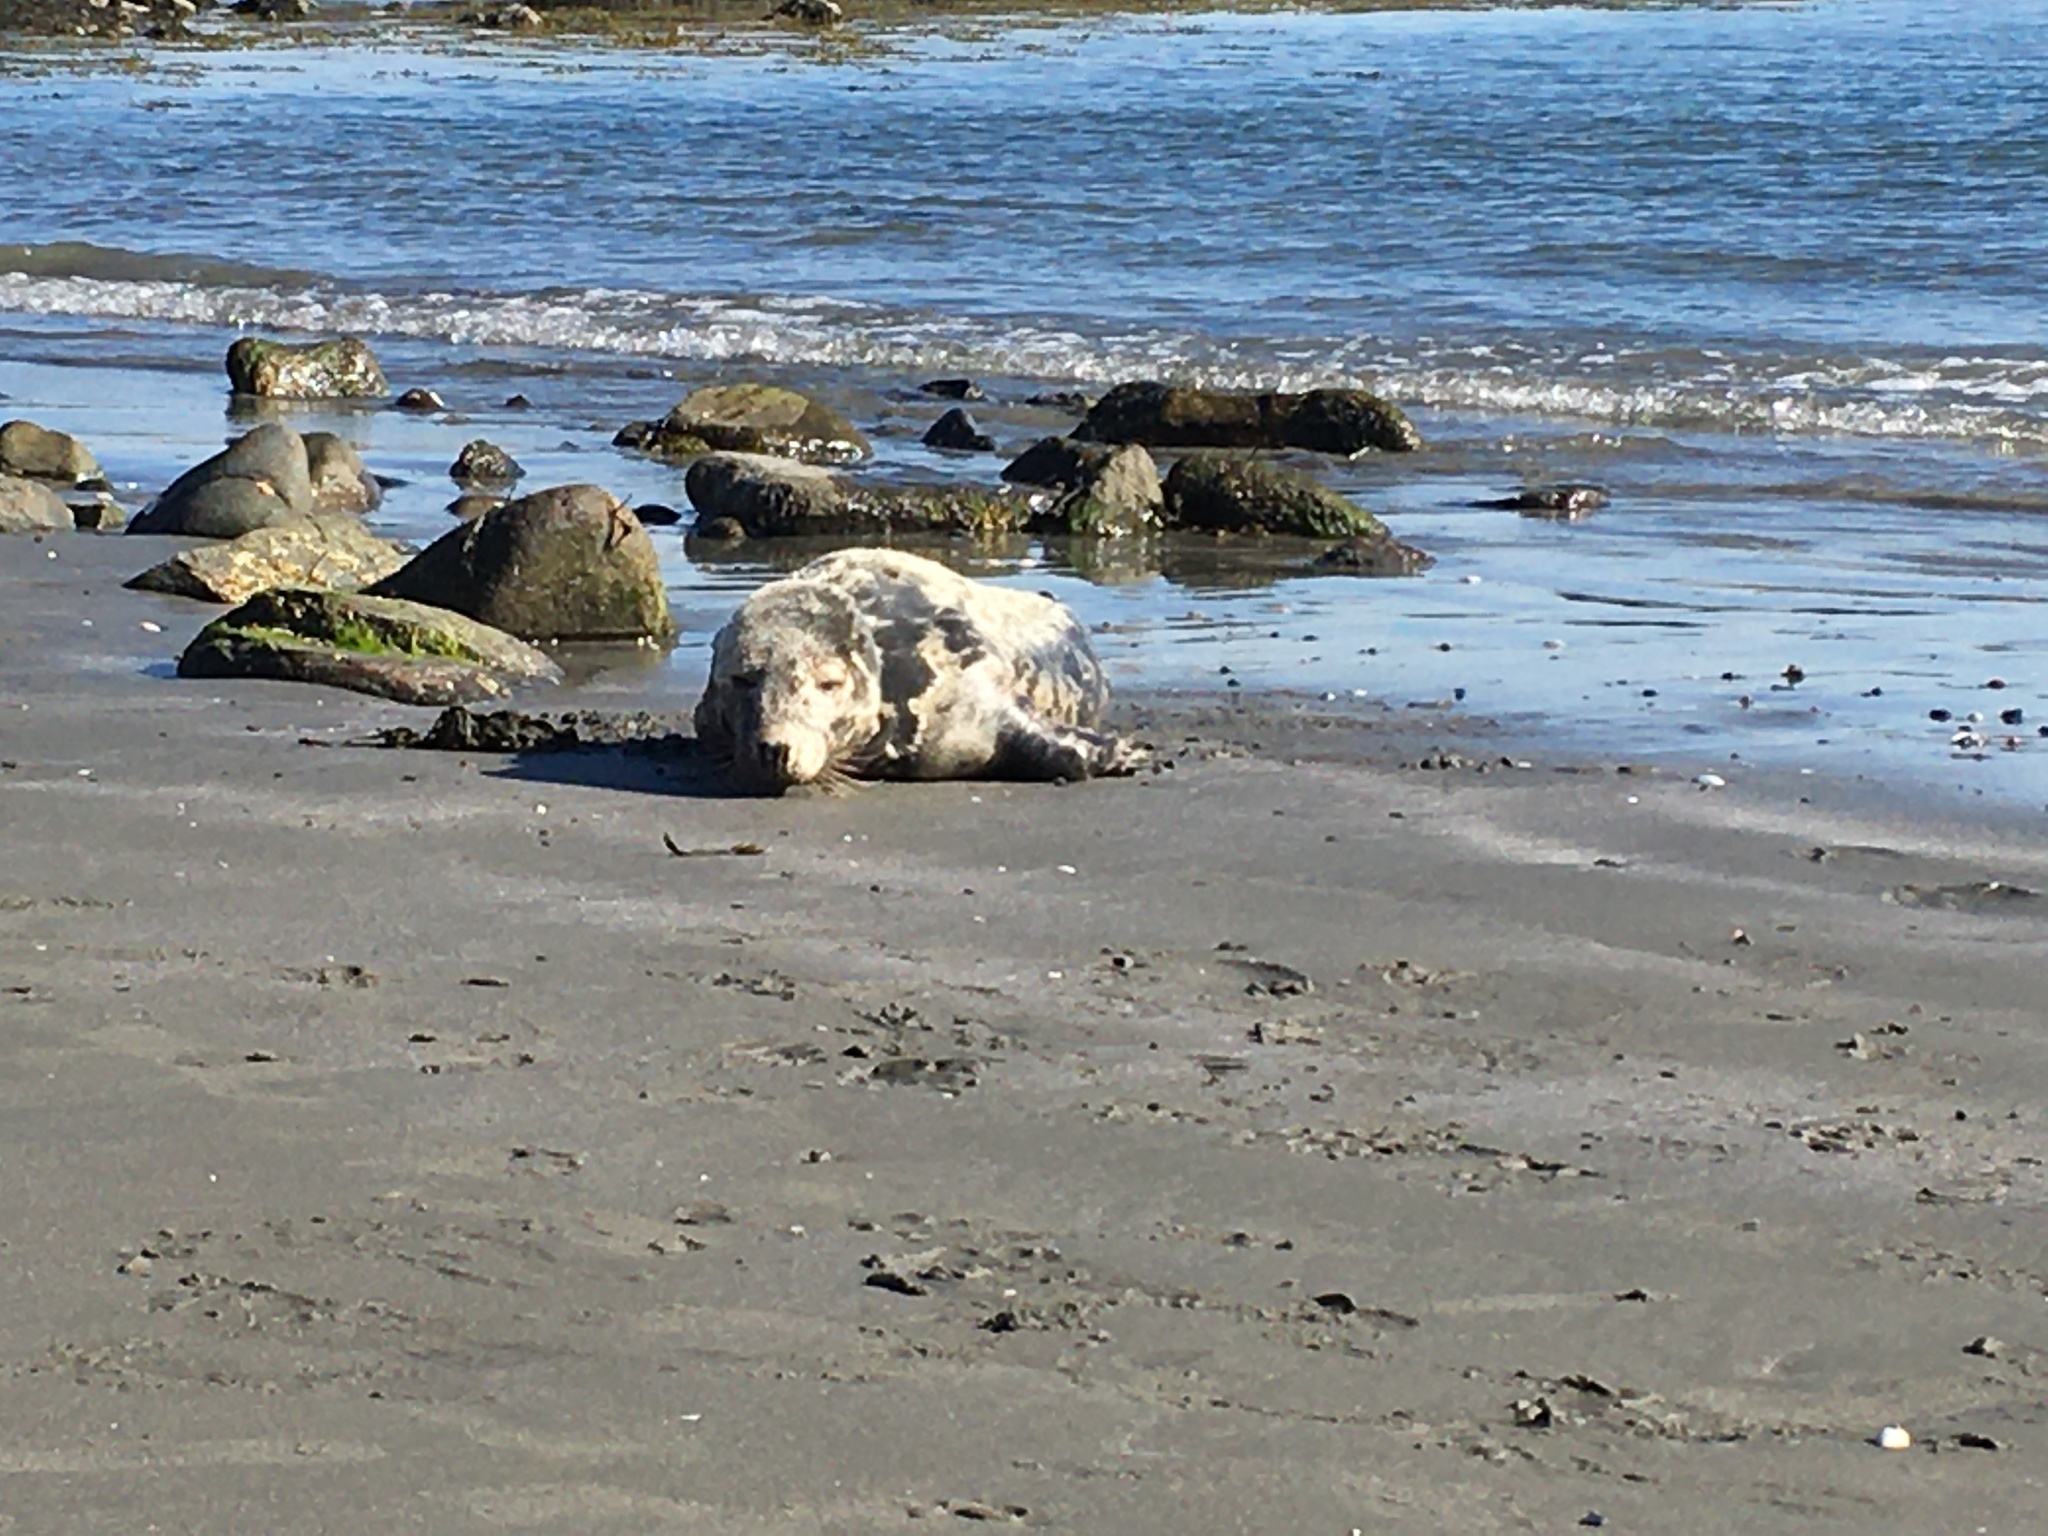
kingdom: Animalia
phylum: Chordata
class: Mammalia
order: Carnivora
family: Phocidae
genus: Halichoerus
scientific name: Halichoerus grypus
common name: Grey seal
